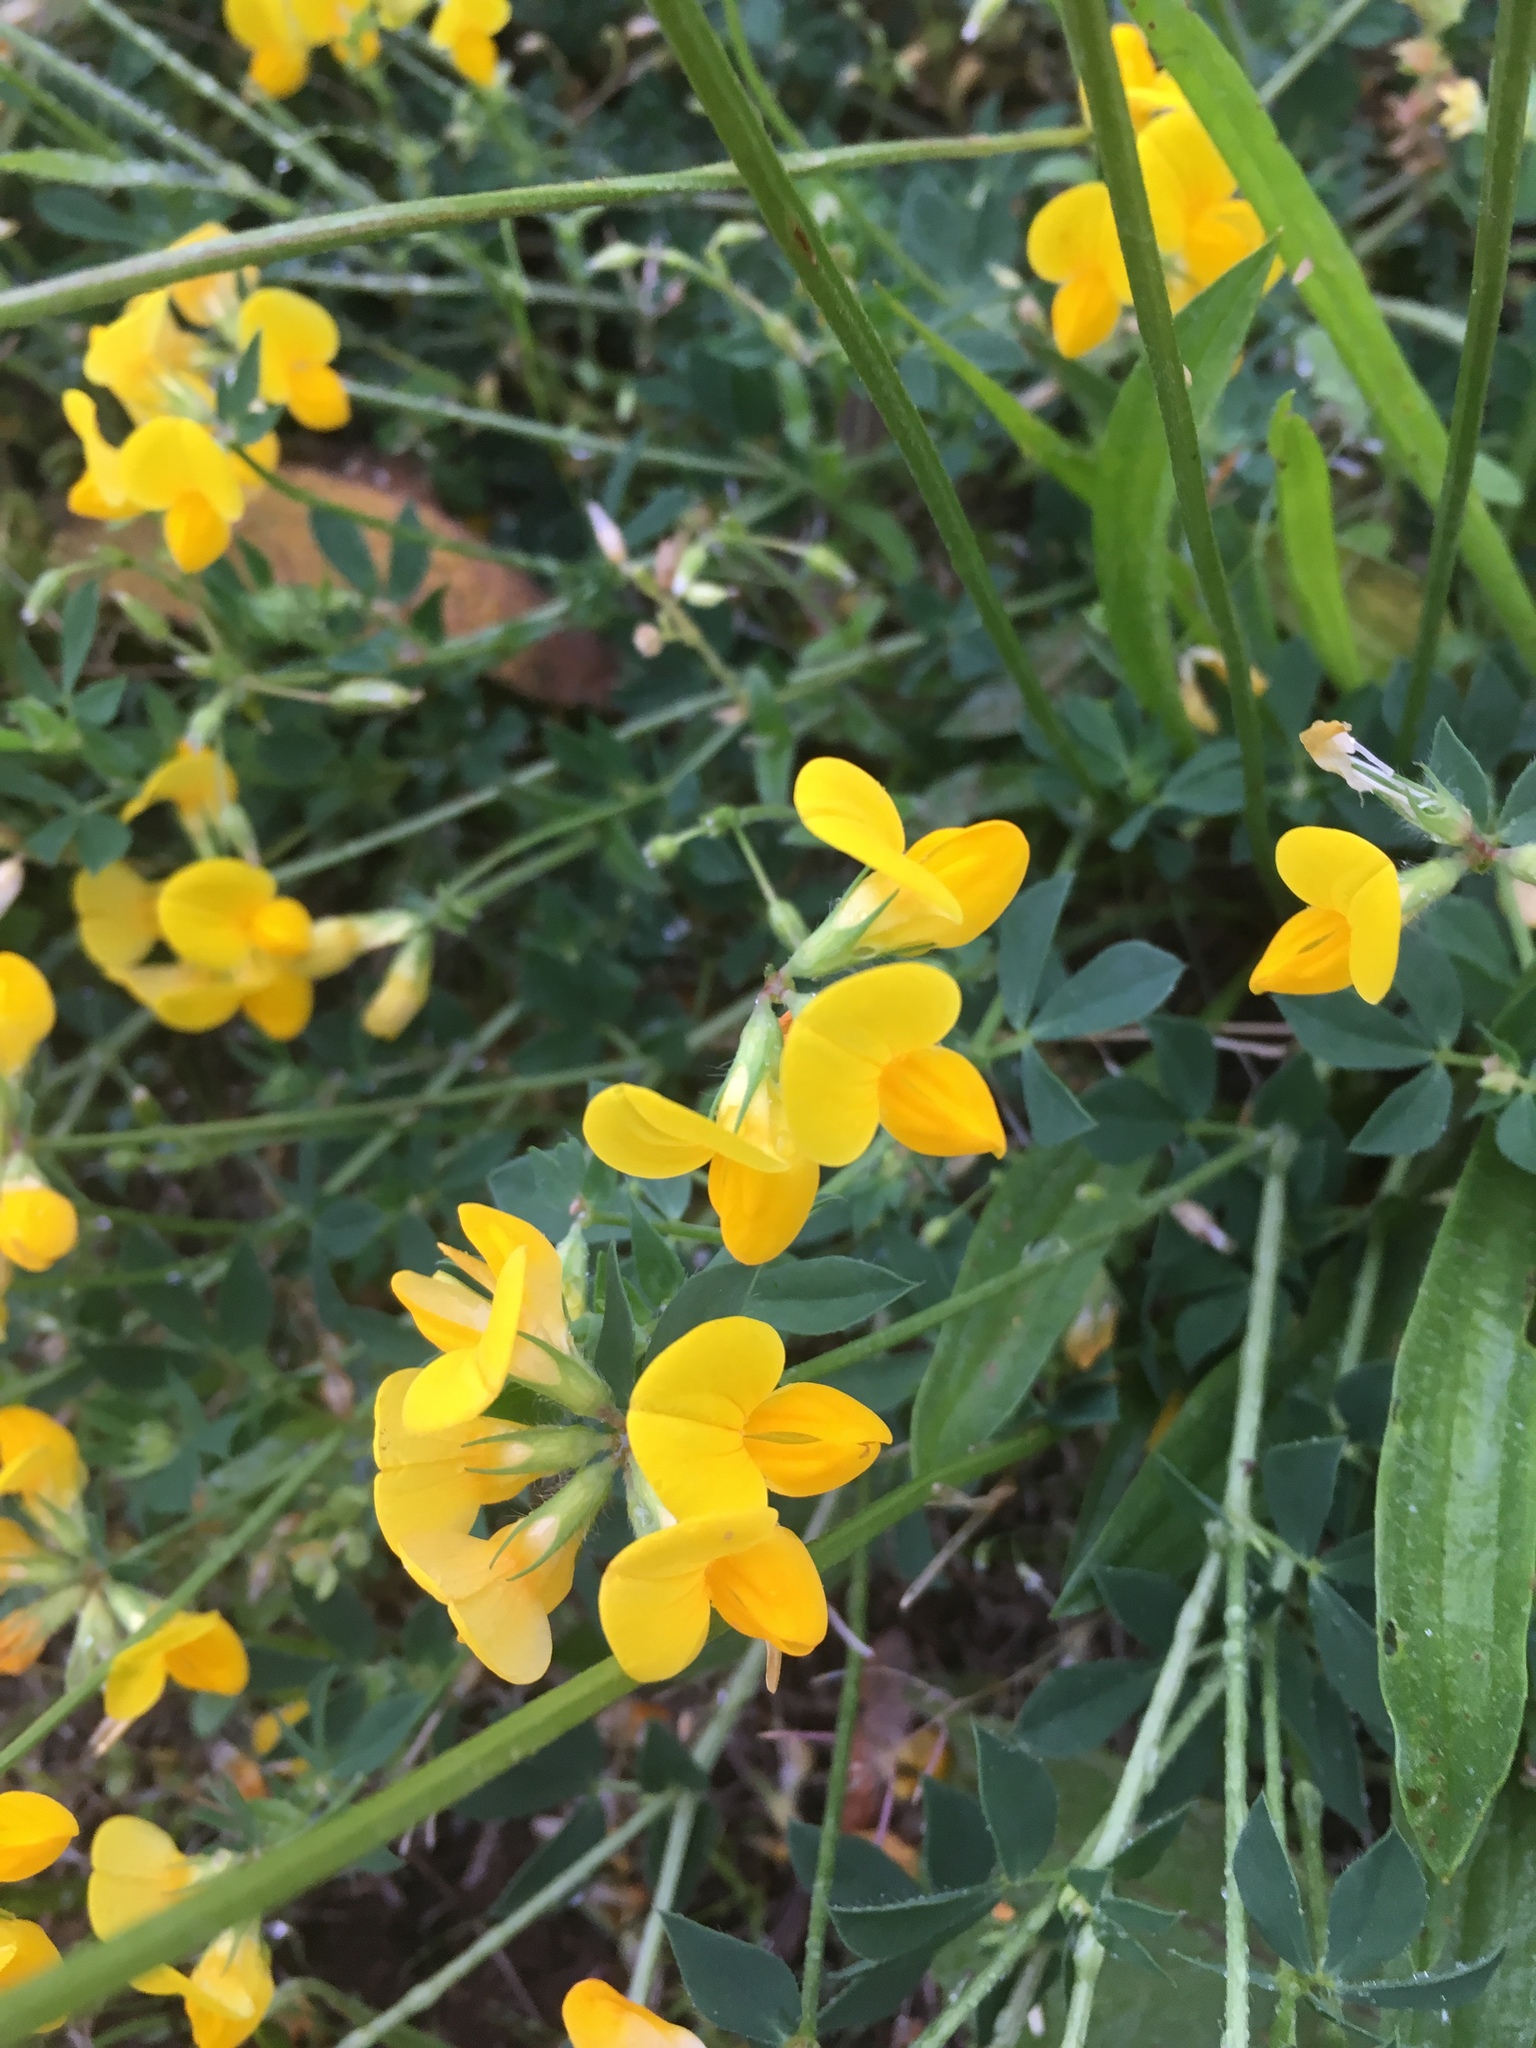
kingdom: Plantae
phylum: Tracheophyta
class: Magnoliopsida
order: Fabales
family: Fabaceae
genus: Lotus
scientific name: Lotus corniculatus
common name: Common bird's-foot-trefoil
